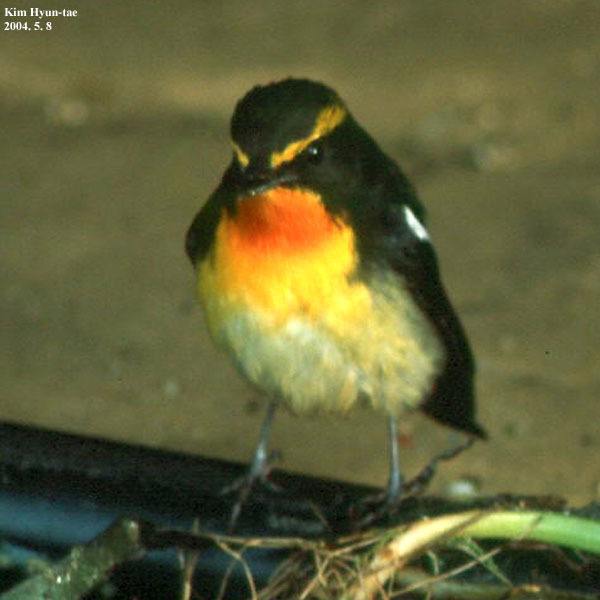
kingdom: Animalia
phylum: Chordata
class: Aves
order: Passeriformes
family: Muscicapidae
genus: Ficedula
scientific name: Ficedula narcissina
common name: Narcissus flycatcher
